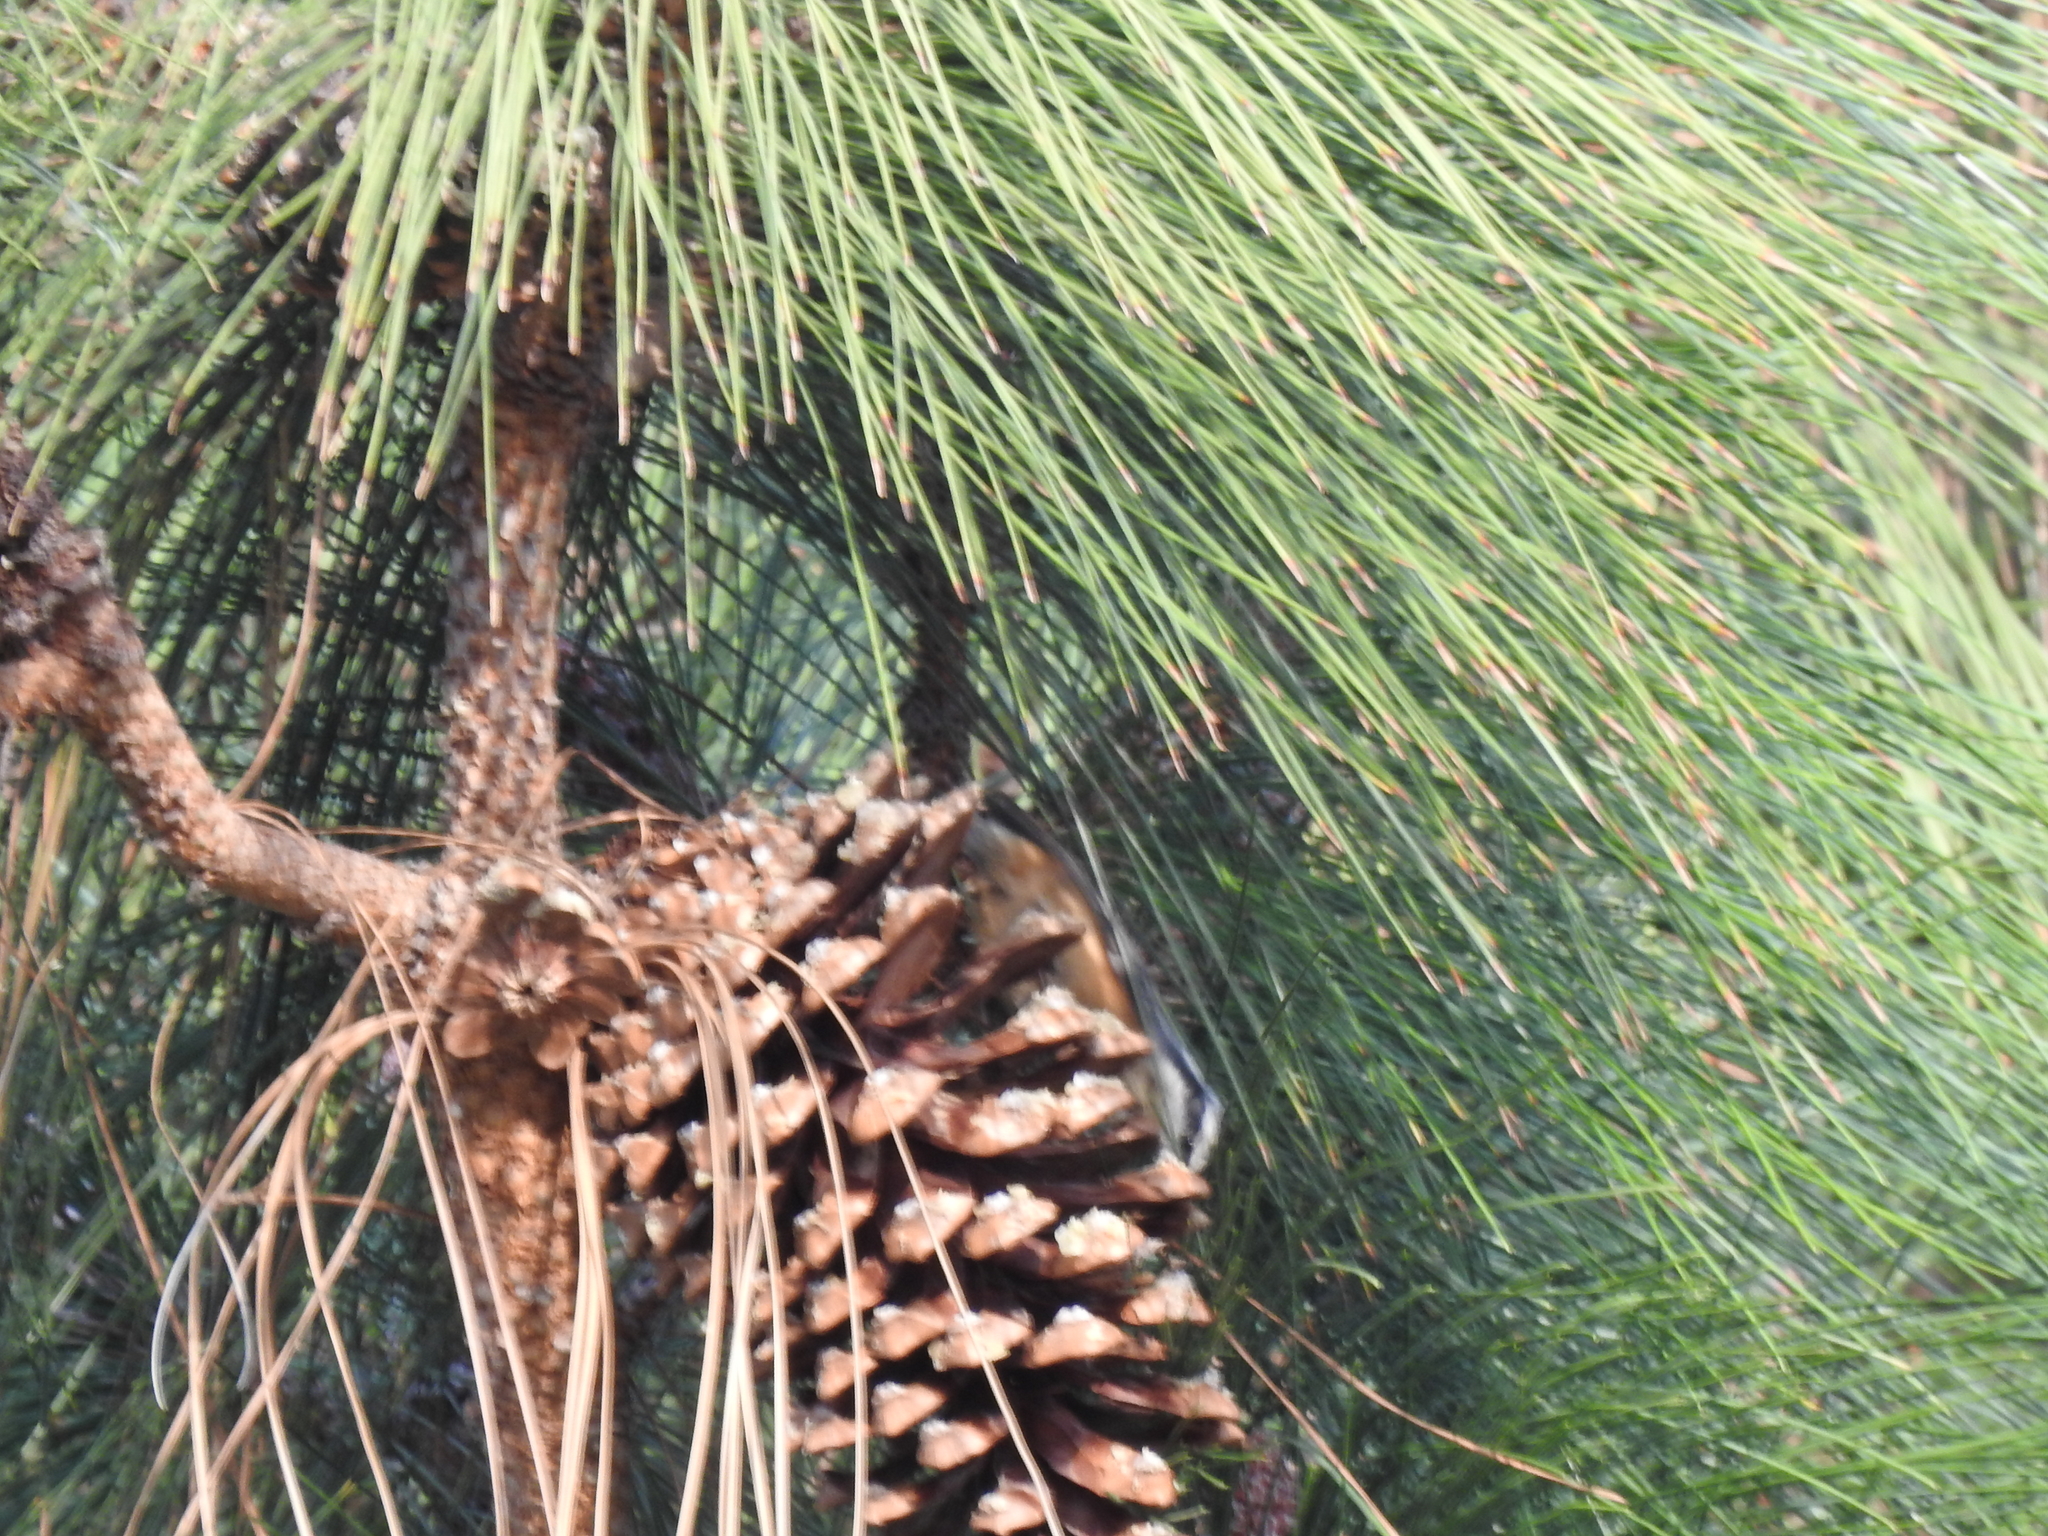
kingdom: Animalia
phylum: Chordata
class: Aves
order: Passeriformes
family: Sittidae
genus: Sitta
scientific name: Sitta canadensis
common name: Red-breasted nuthatch
